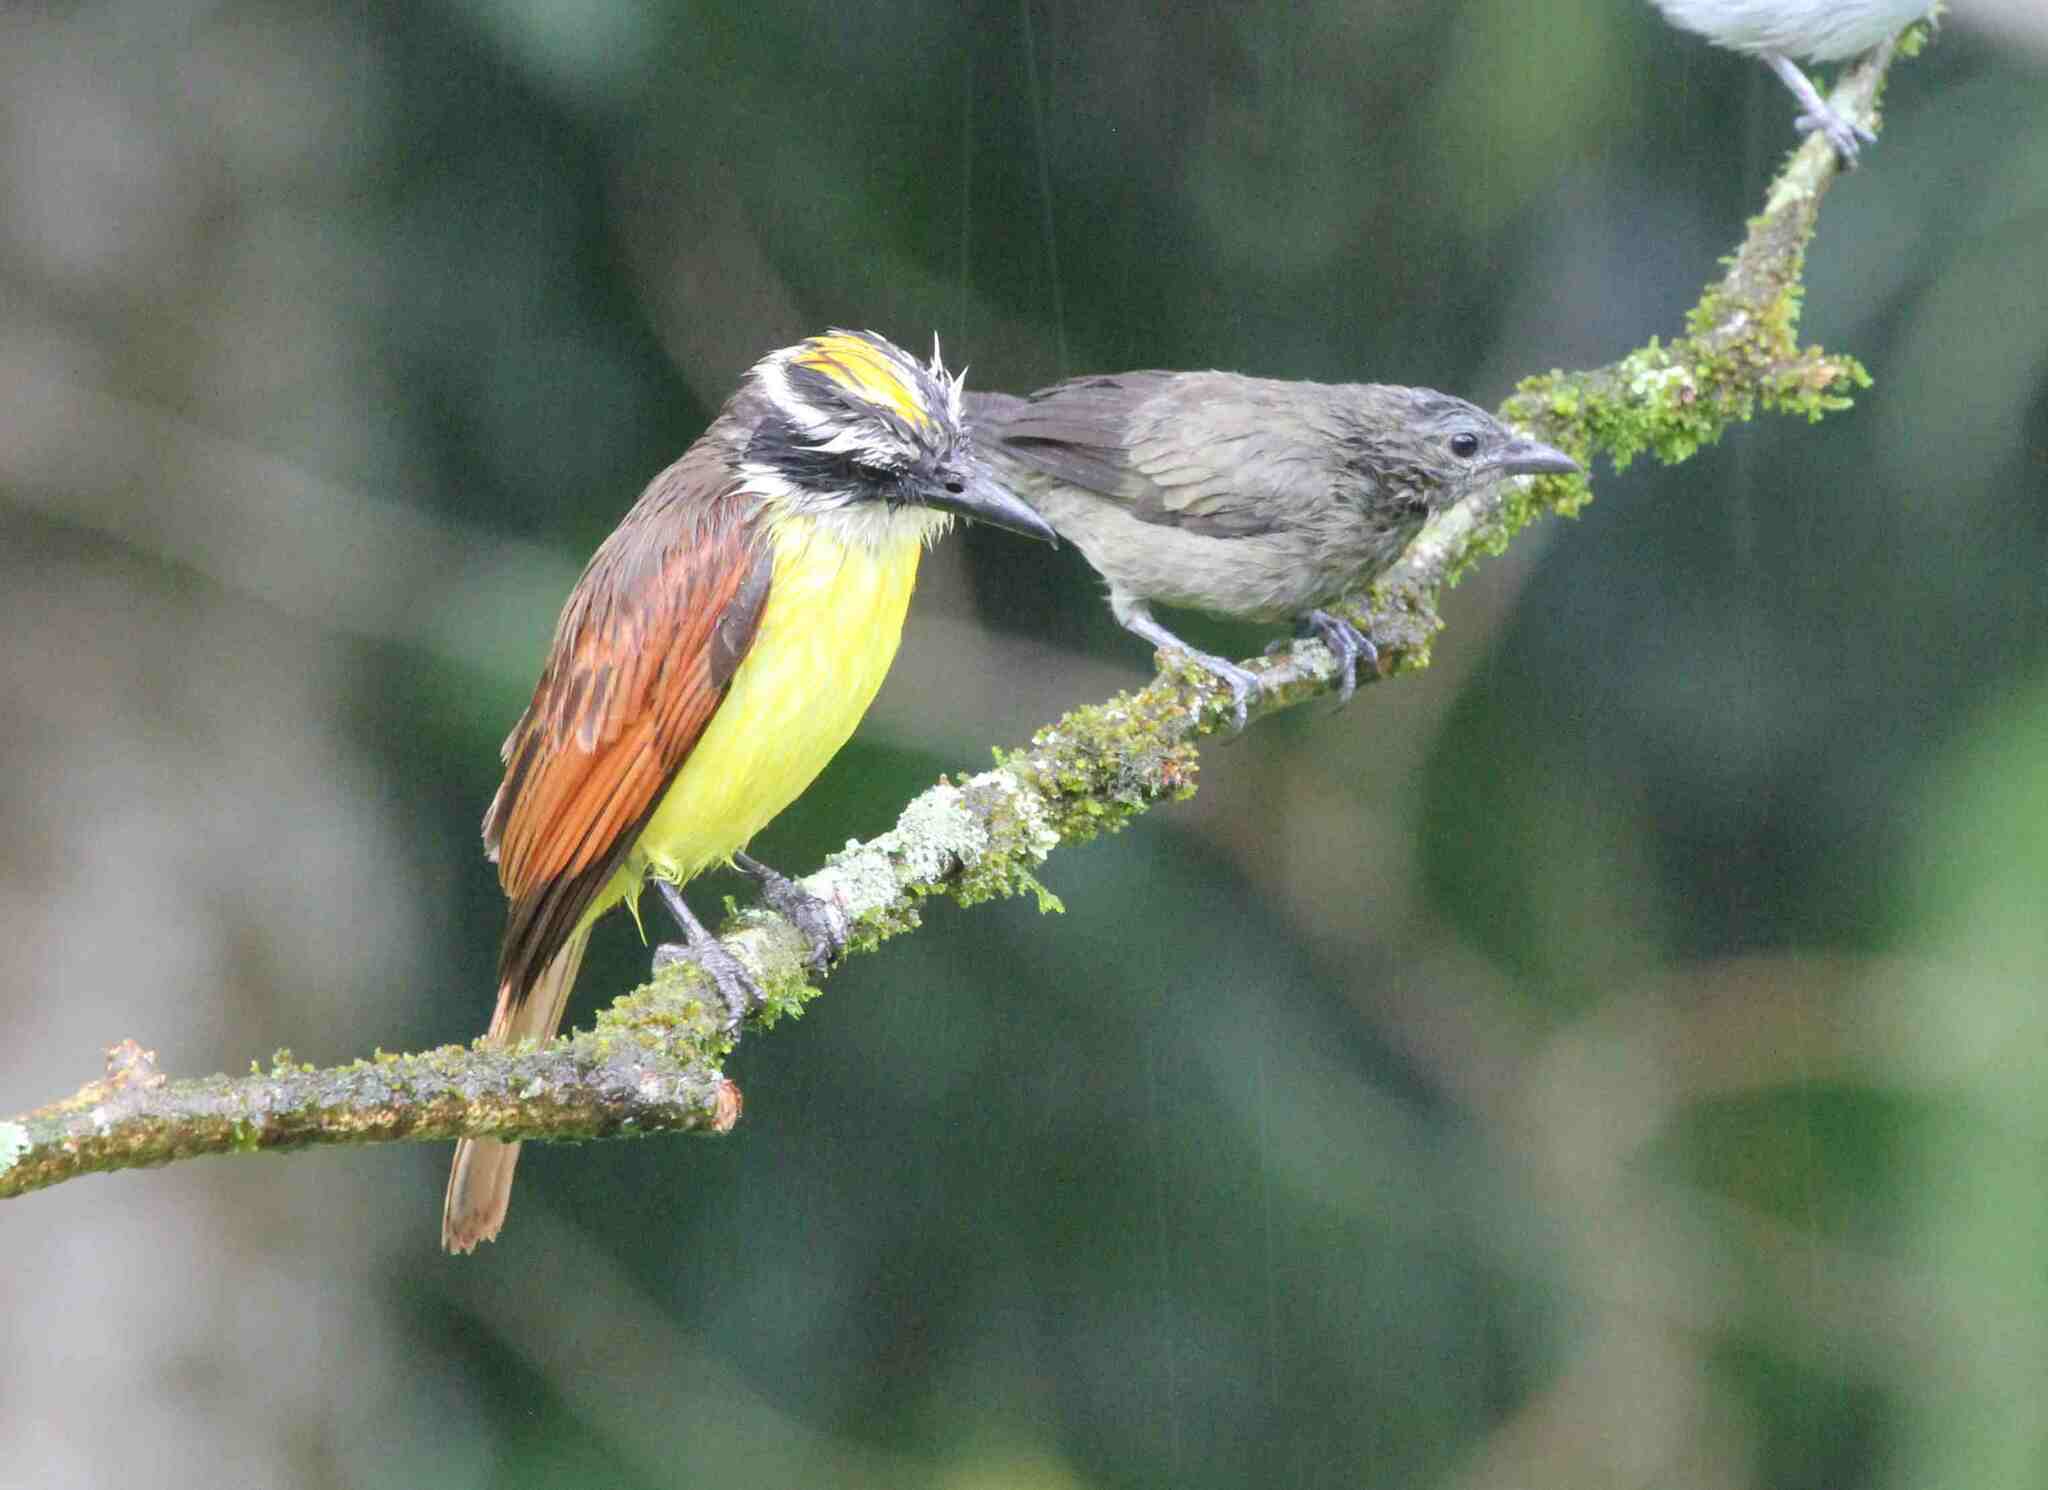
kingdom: Animalia
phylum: Chordata
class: Aves
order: Passeriformes
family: Tyrannidae
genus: Pitangus
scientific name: Pitangus sulphuratus
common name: Great kiskadee
